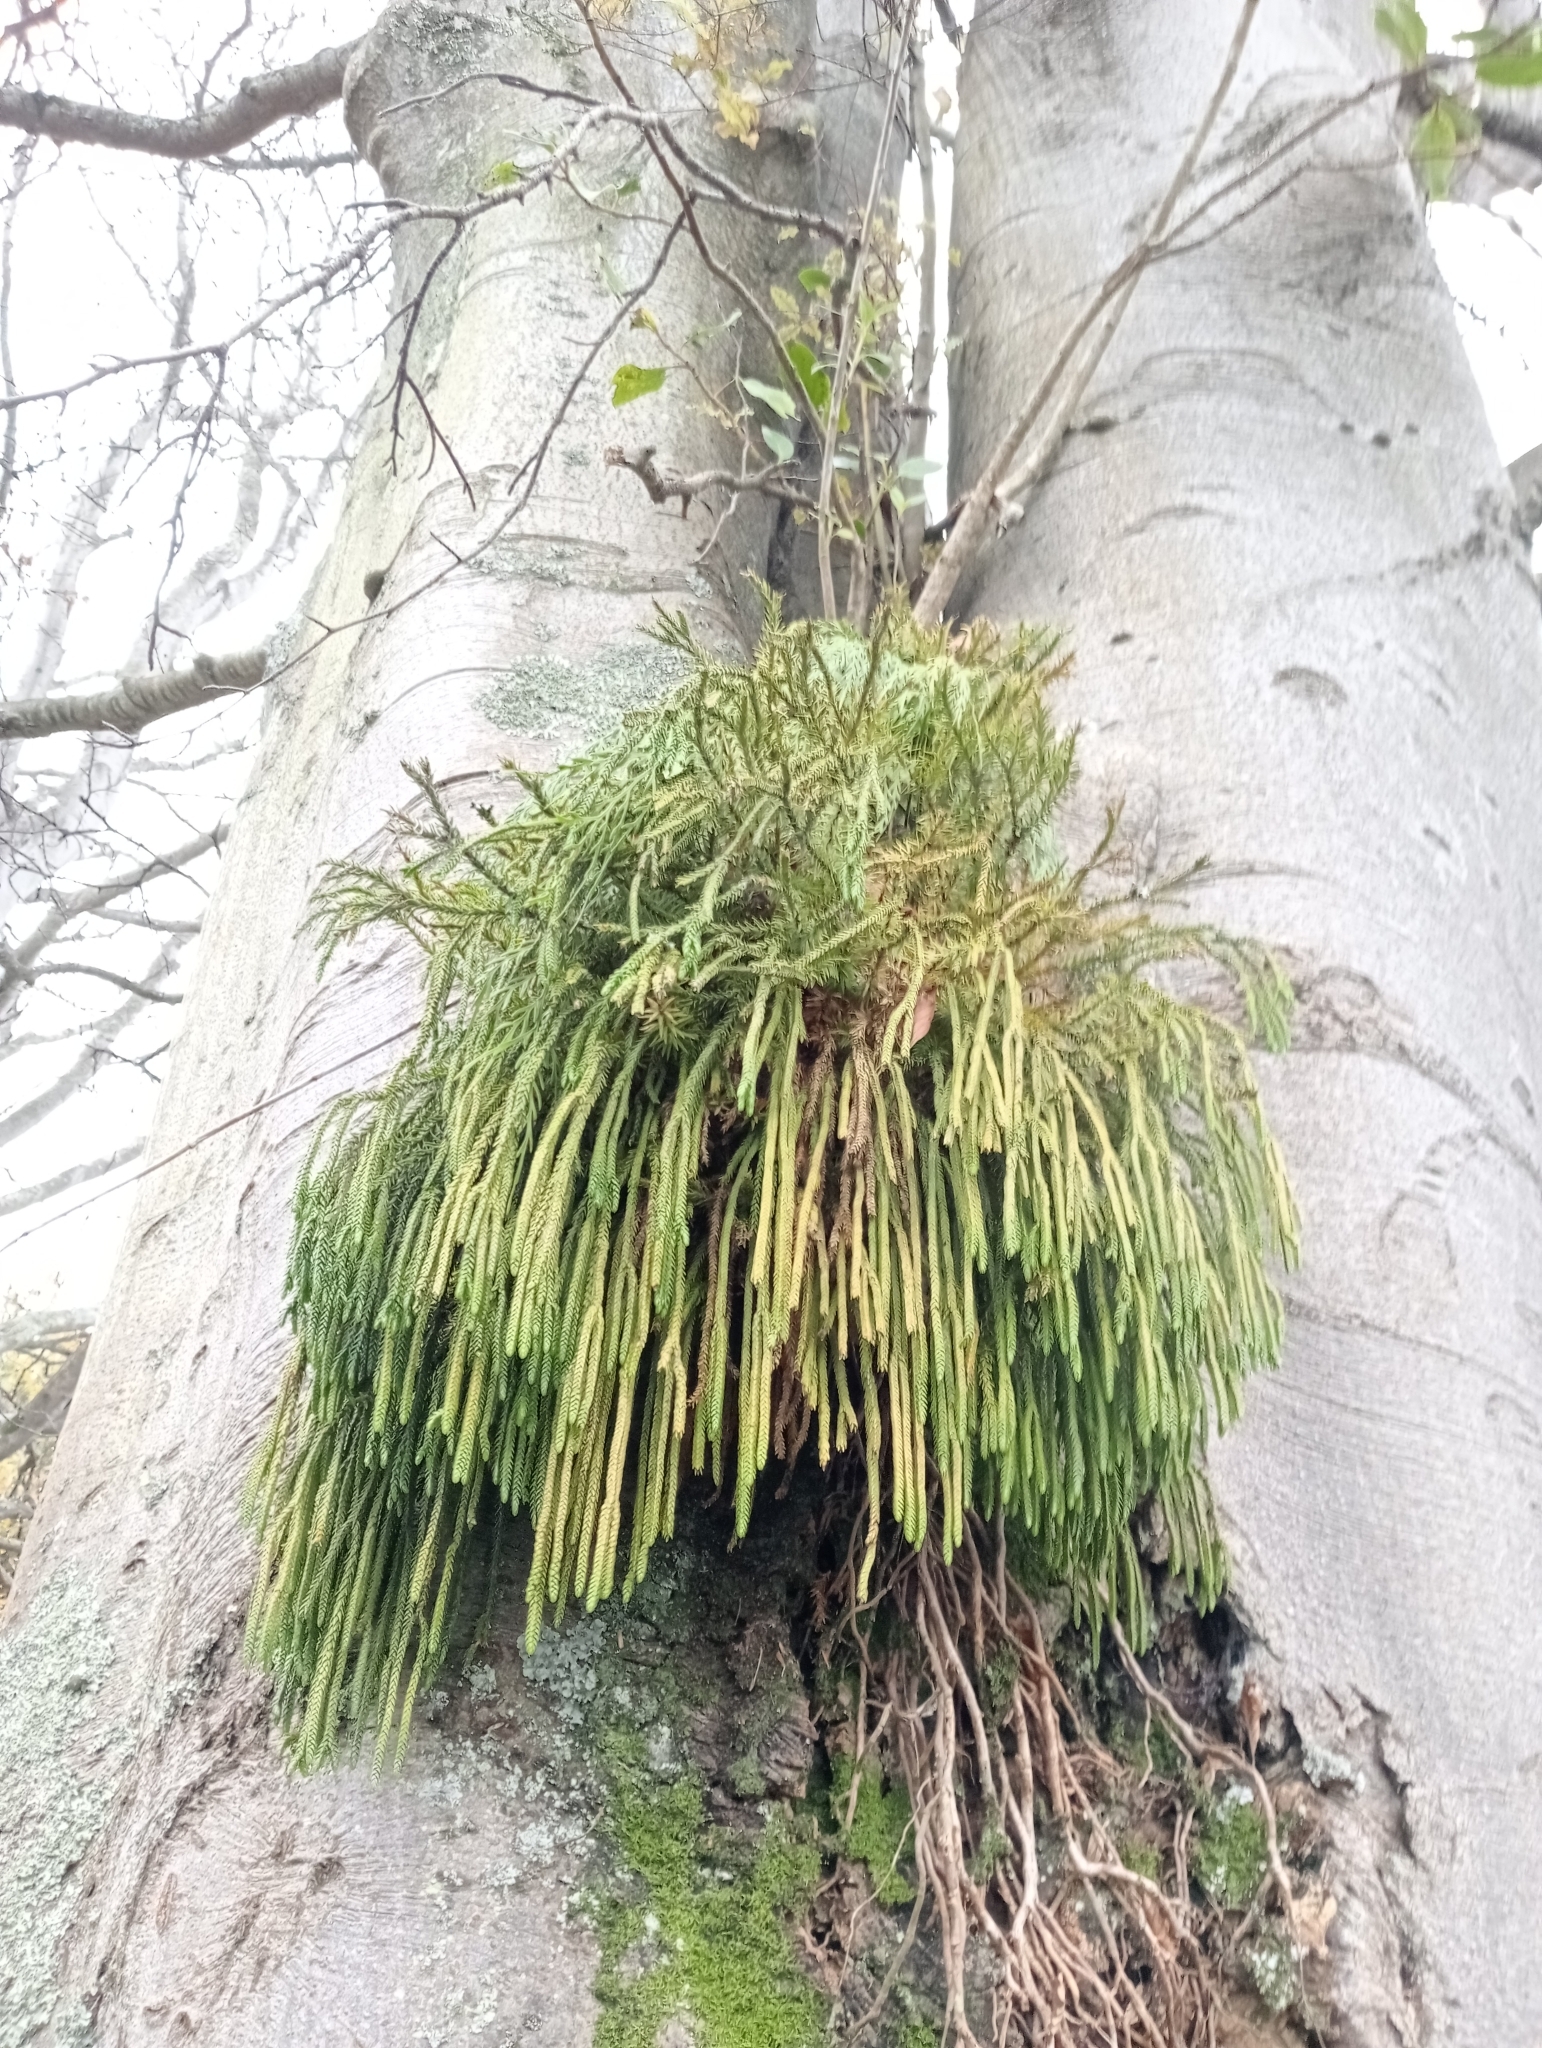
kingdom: Plantae
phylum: Tracheophyta
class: Lycopodiopsida
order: Lycopodiales
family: Lycopodiaceae
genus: Phlegmariurus
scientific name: Phlegmariurus varius
